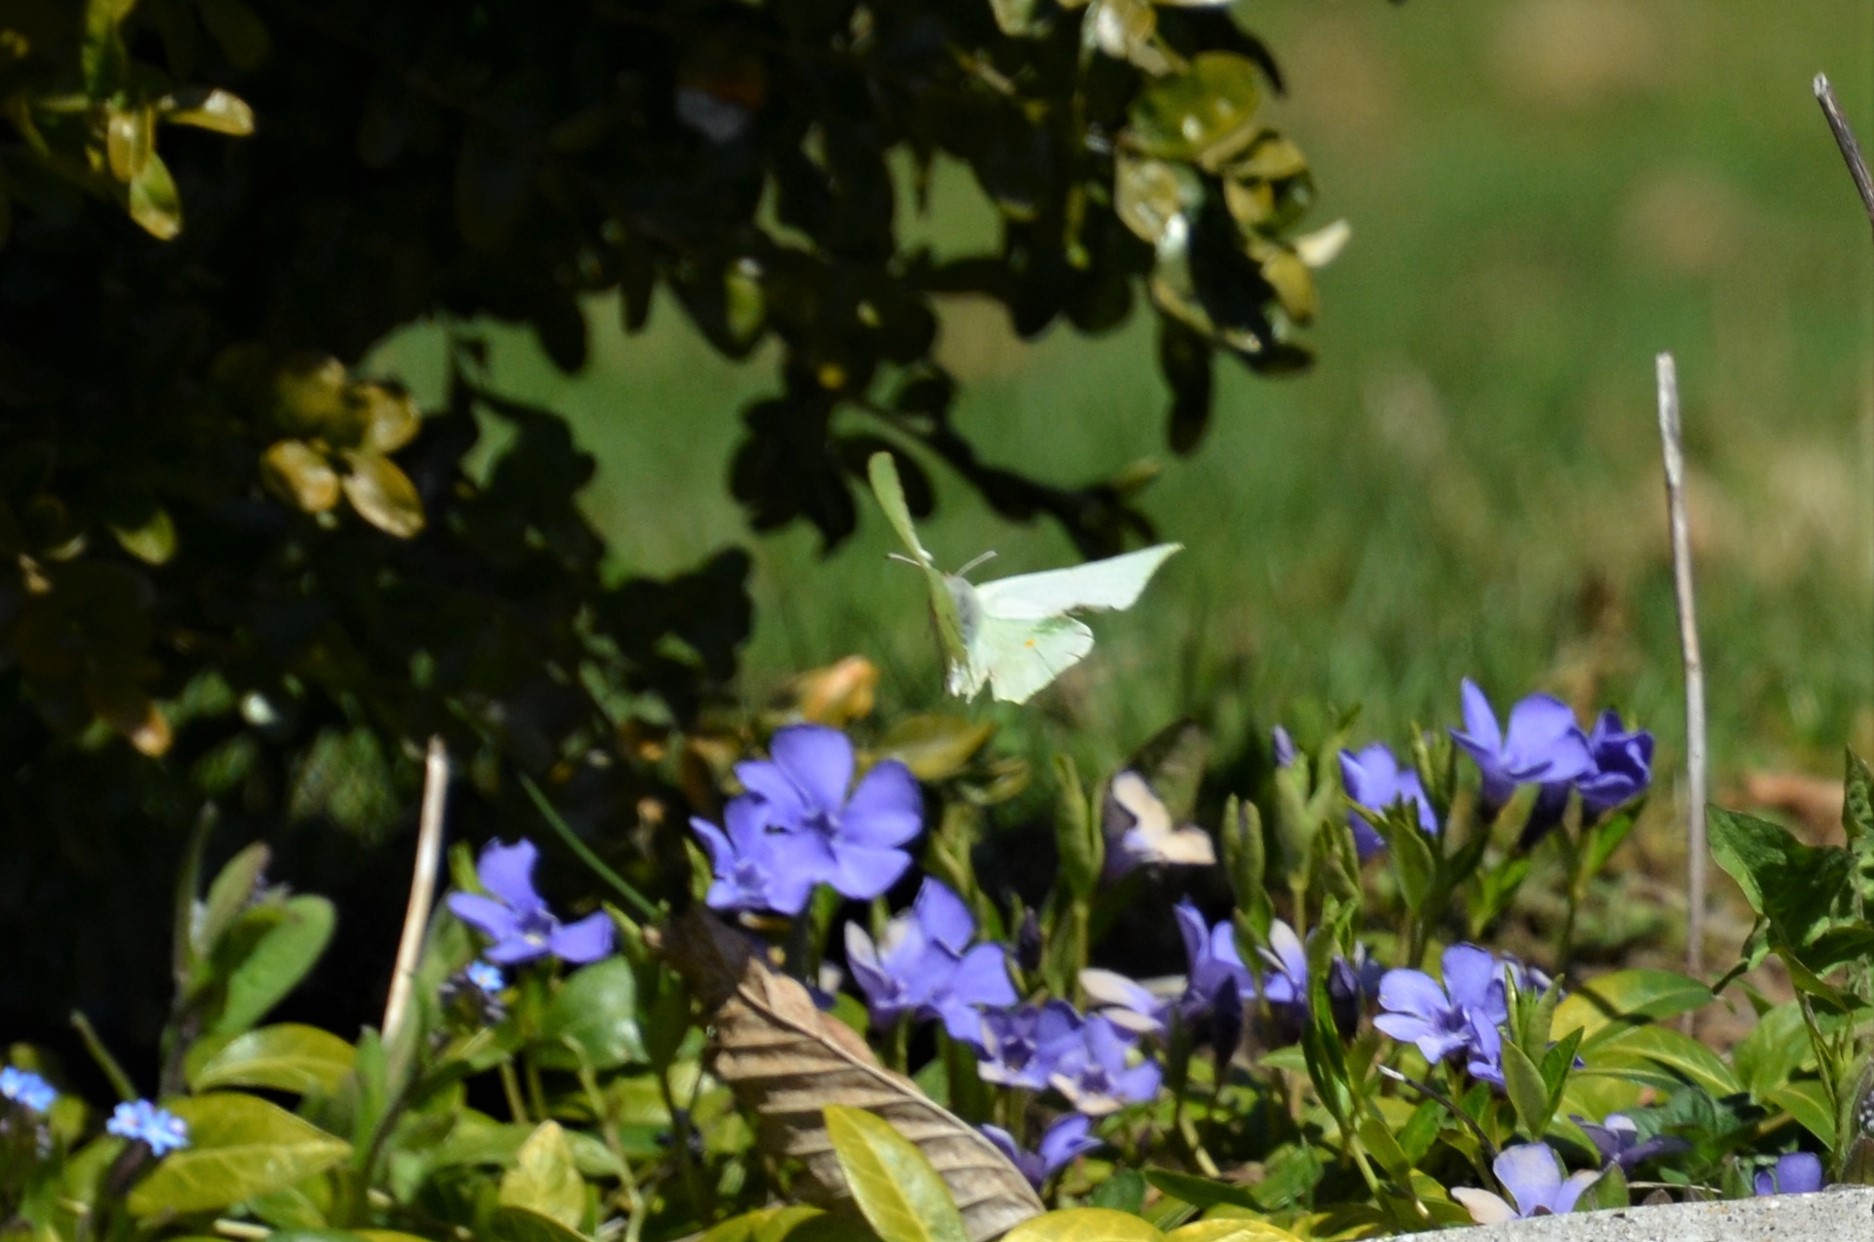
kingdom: Animalia
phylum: Arthropoda
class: Insecta
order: Lepidoptera
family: Pieridae
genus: Gonepteryx
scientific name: Gonepteryx rhamni
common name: Brimstone
